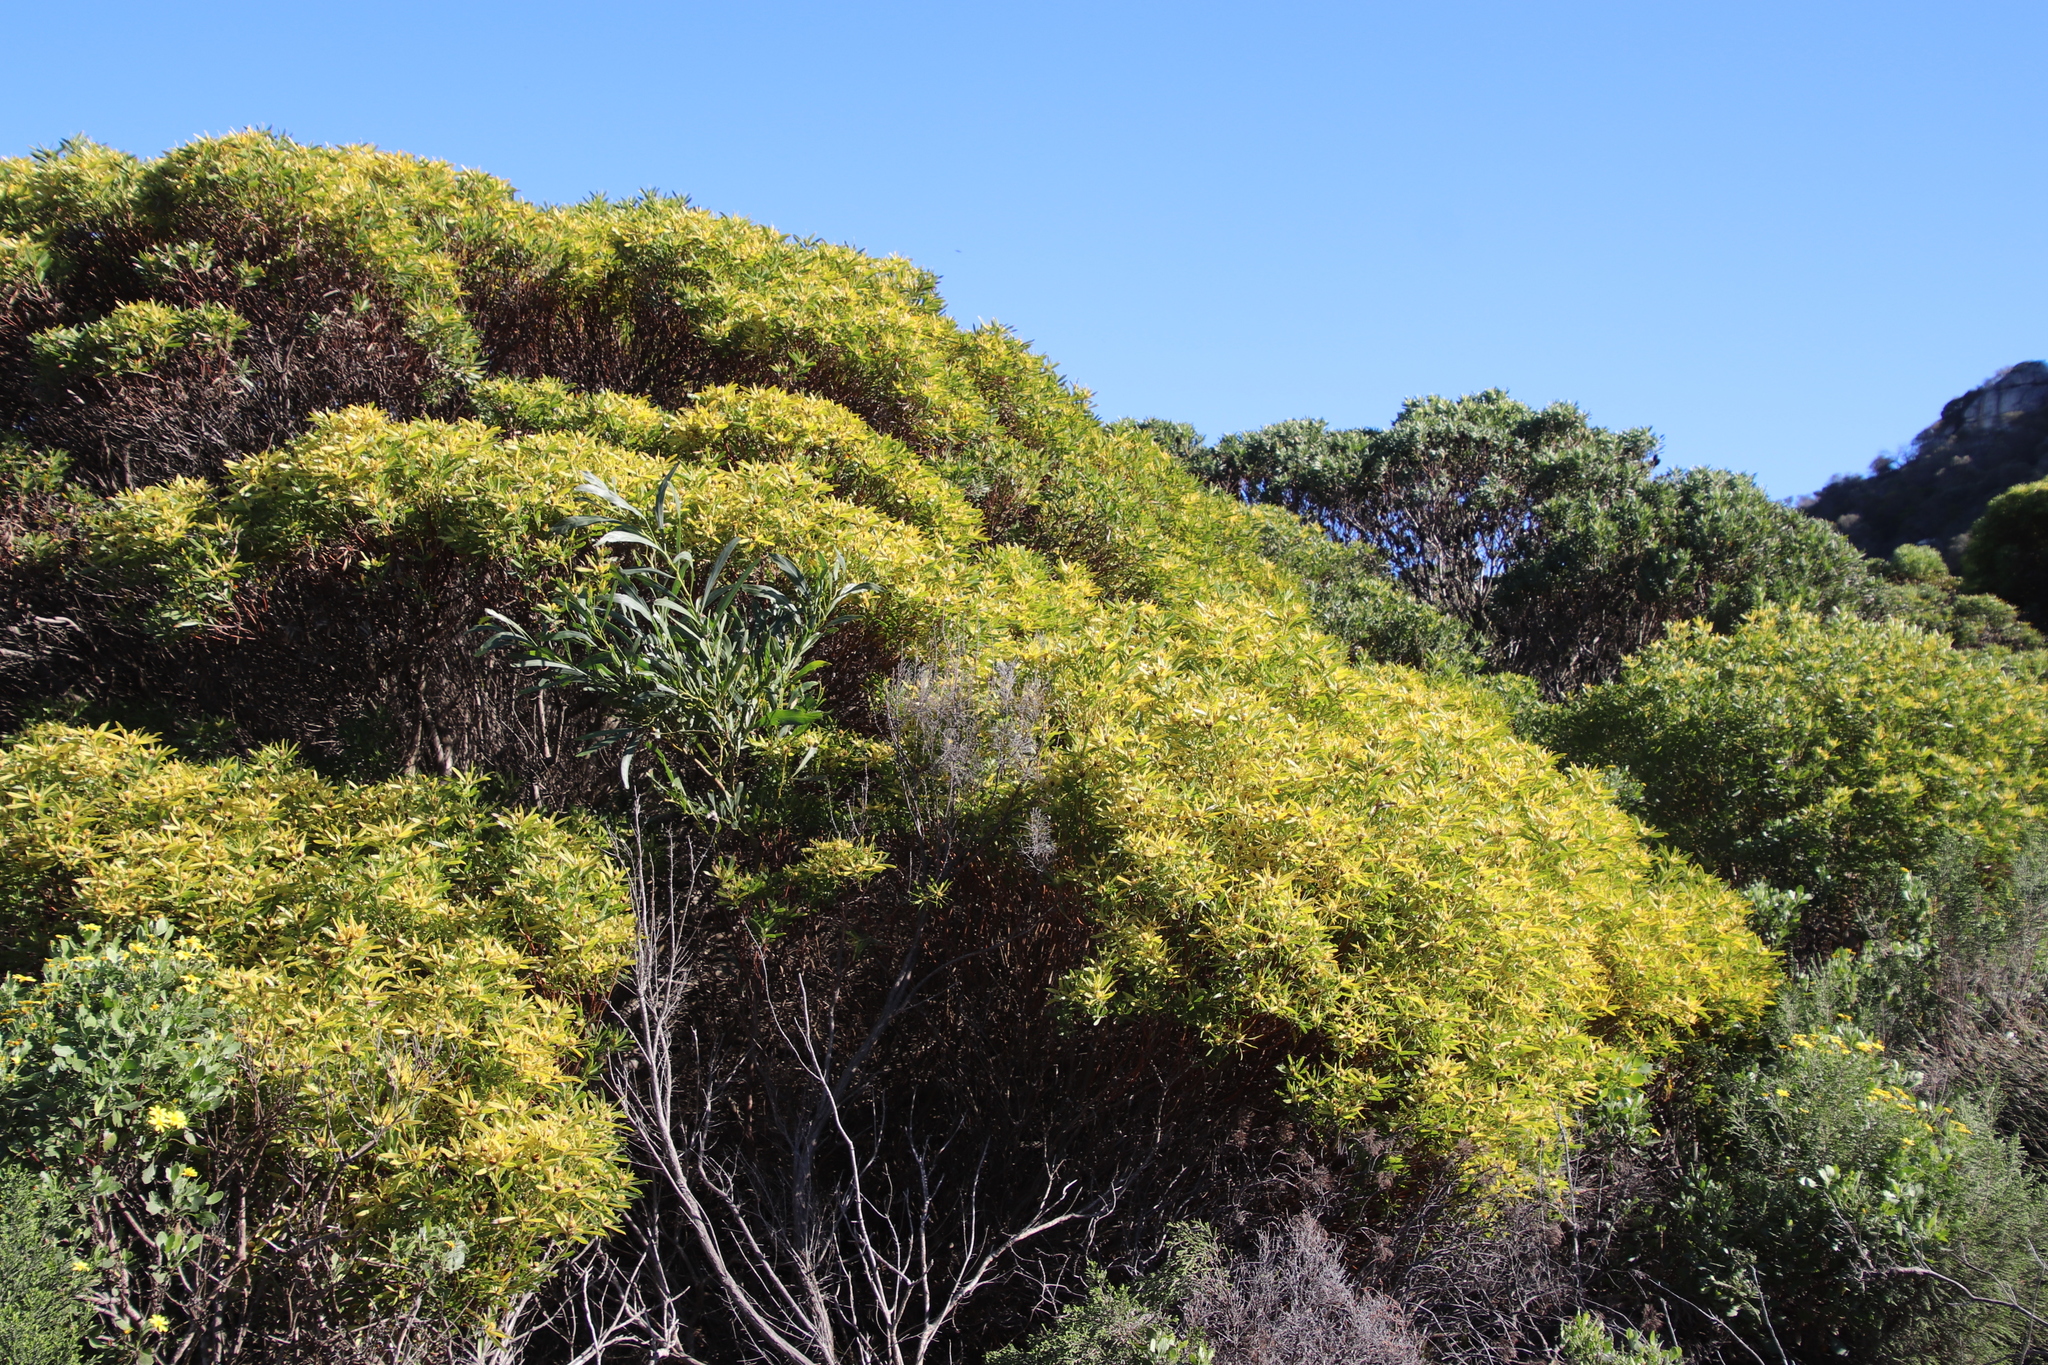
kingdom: Plantae
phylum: Tracheophyta
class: Magnoliopsida
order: Proteales
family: Proteaceae
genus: Leucadendron
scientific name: Leucadendron coniferum
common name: Dune conebush
